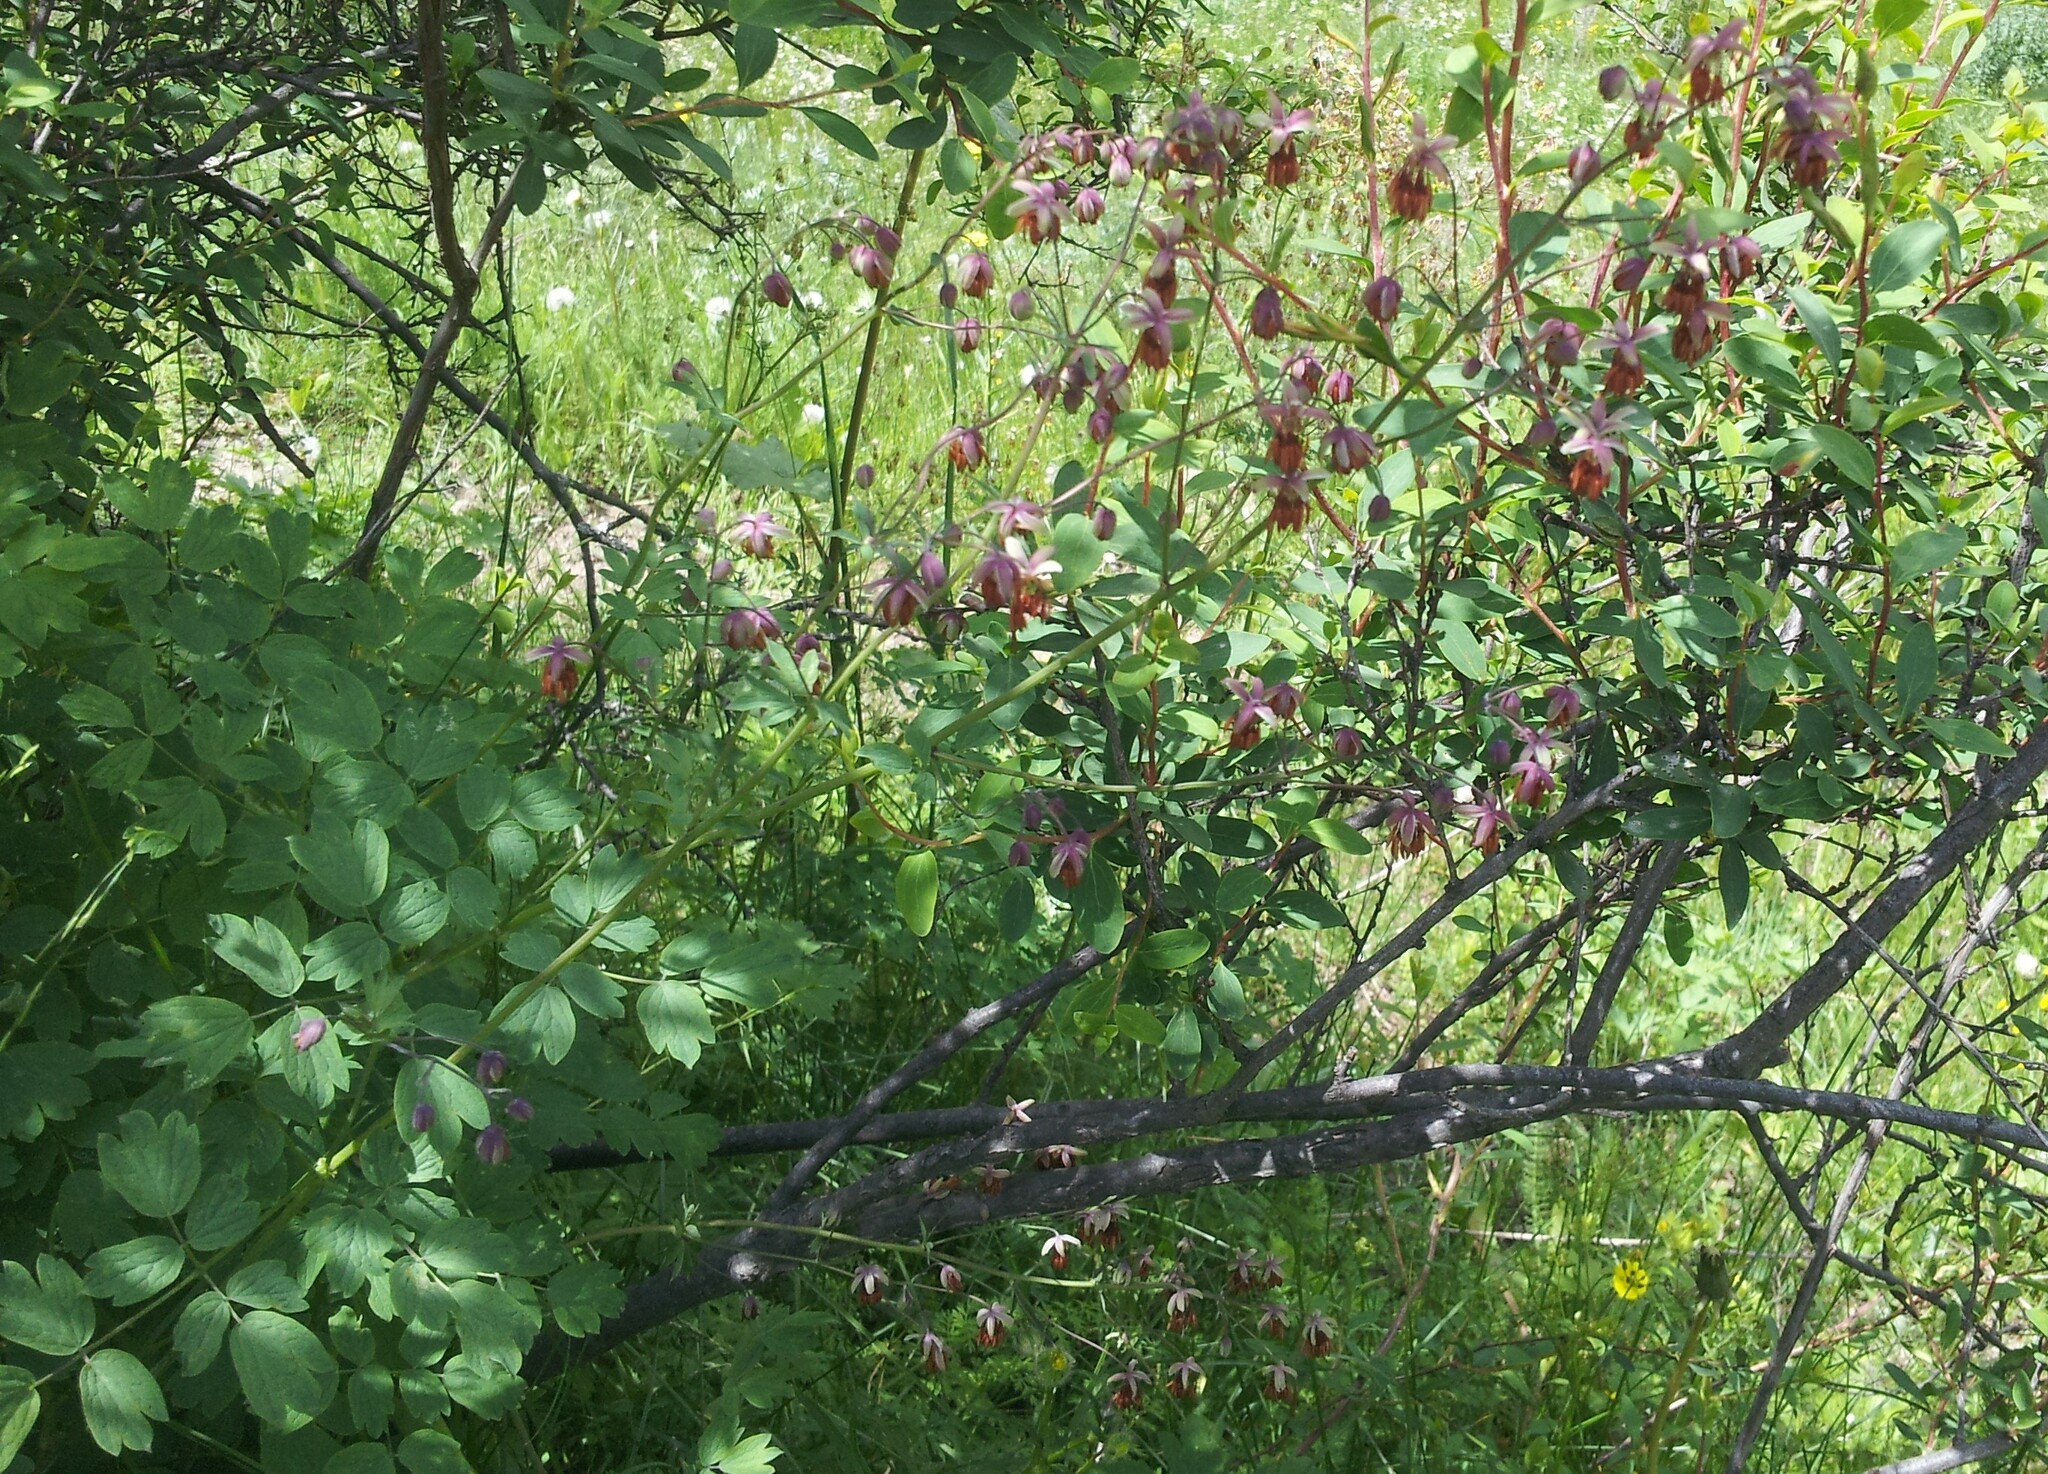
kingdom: Plantae
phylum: Tracheophyta
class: Magnoliopsida
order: Ranunculales
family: Ranunculaceae
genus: Thalictrum
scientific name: Thalictrum simplex
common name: Small meadow-rue
